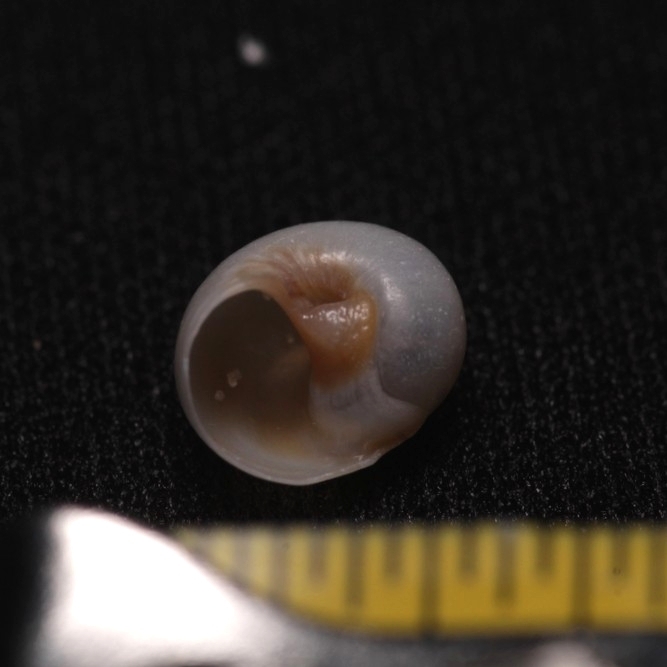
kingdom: Animalia
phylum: Mollusca
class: Gastropoda
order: Littorinimorpha
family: Naticidae
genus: Neverita
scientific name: Neverita duplicata
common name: Lobed moonsnail
